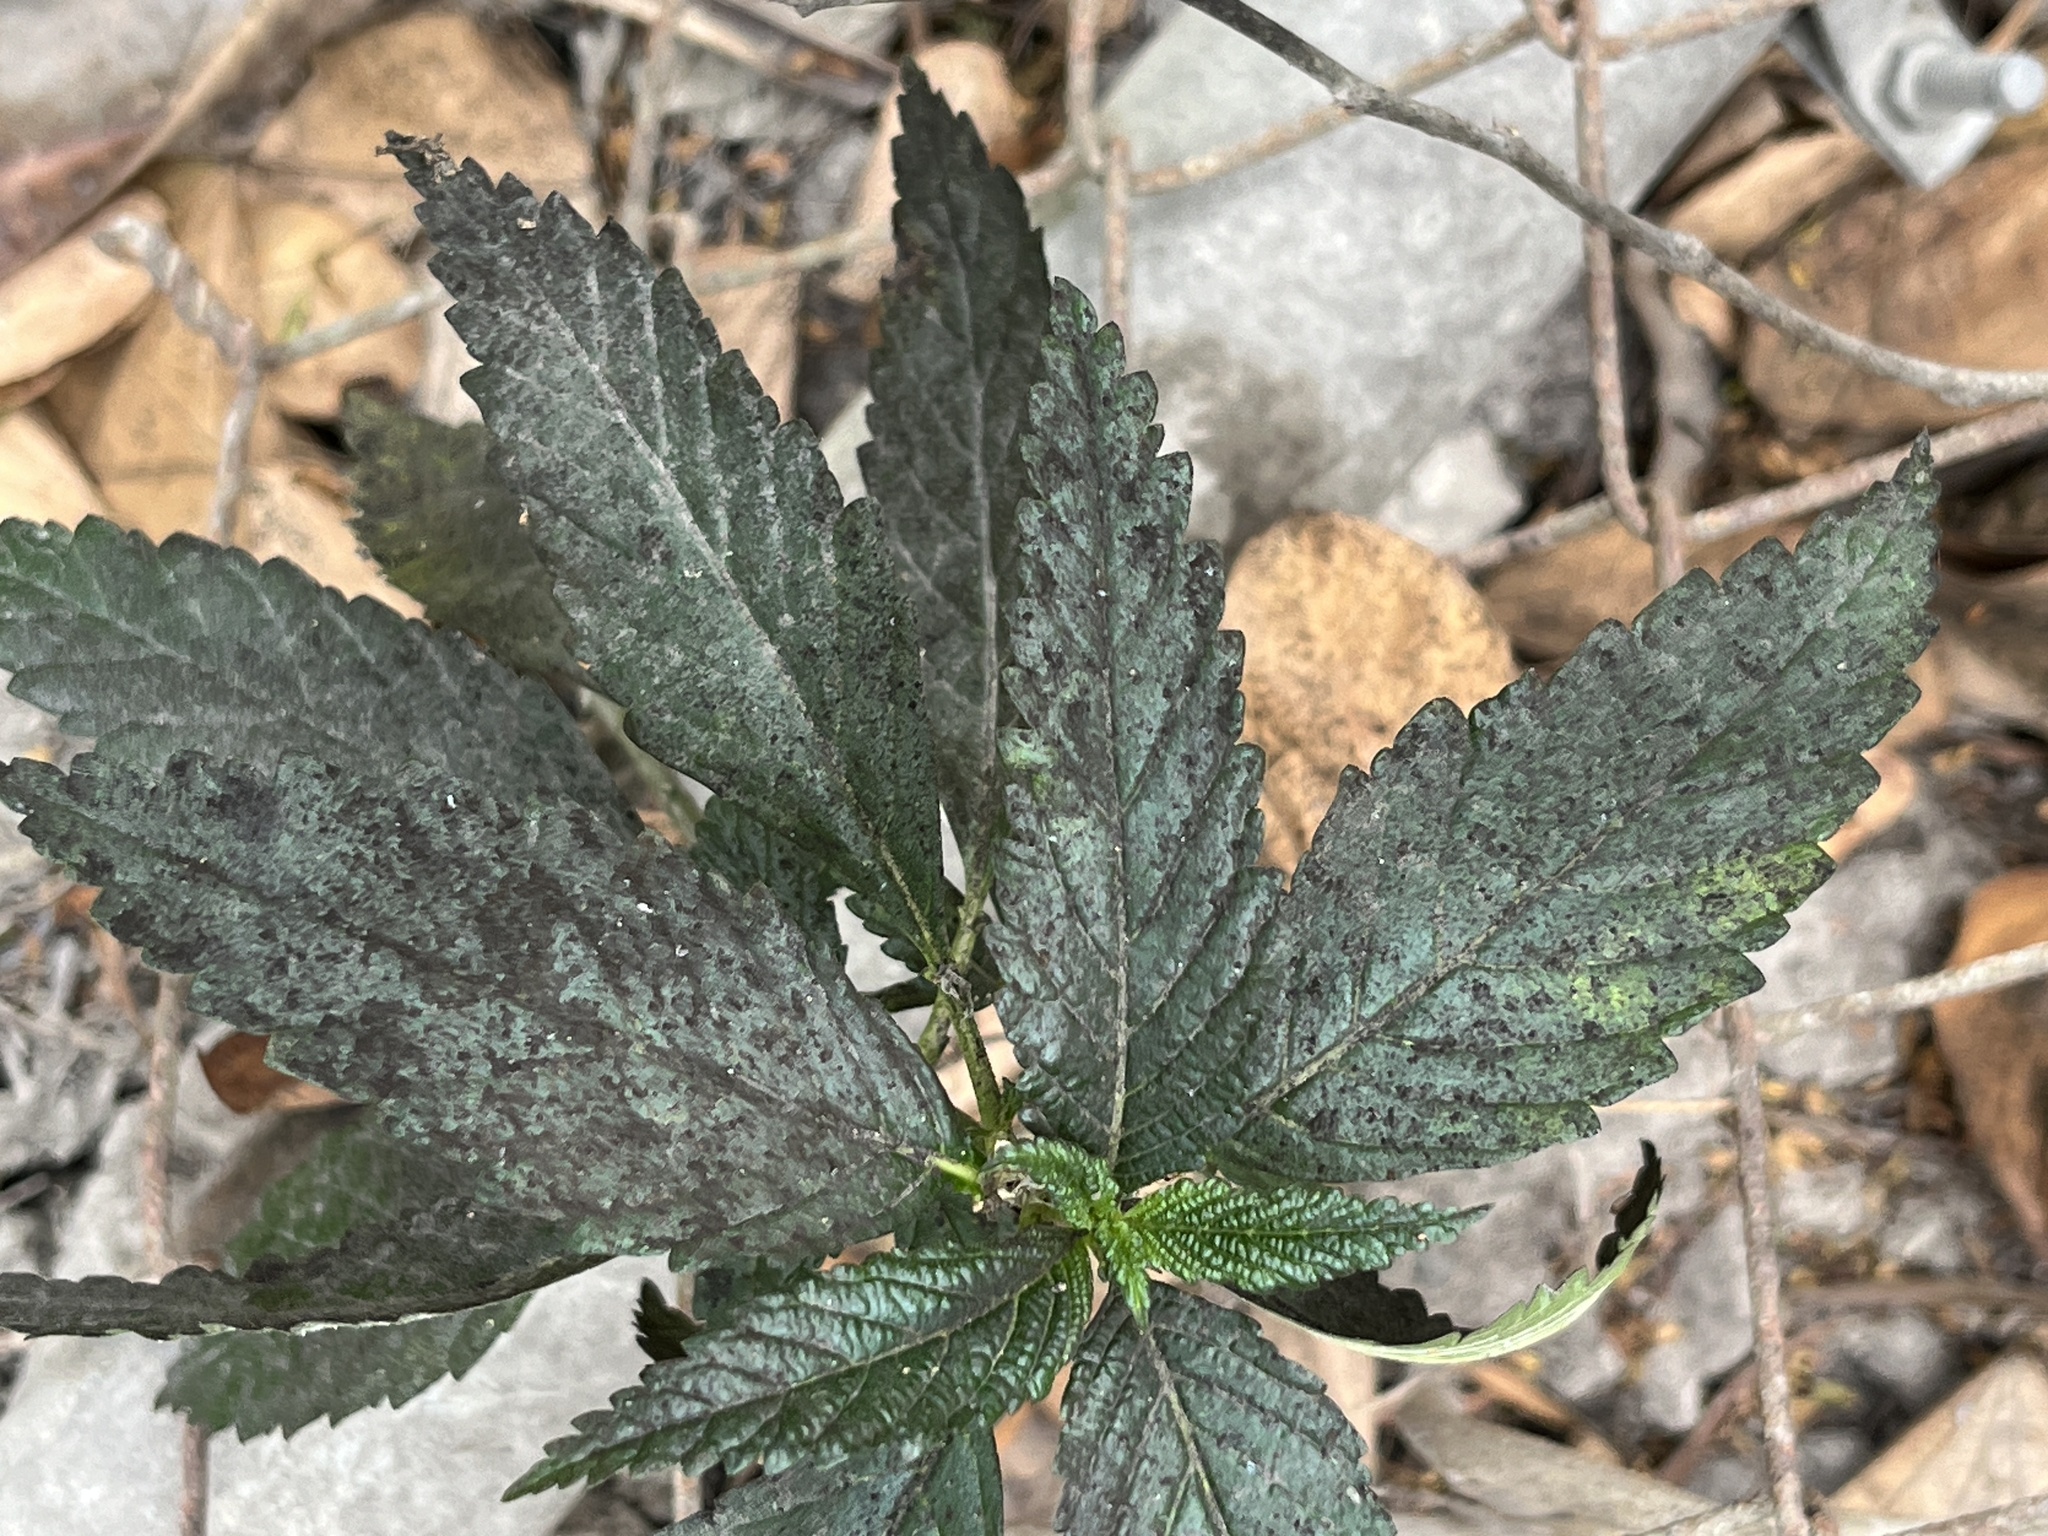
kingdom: Plantae
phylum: Tracheophyta
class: Magnoliopsida
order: Malpighiales
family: Turneraceae
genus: Turnera
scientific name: Turnera ulmifolia
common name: Ramgoat dashalong
